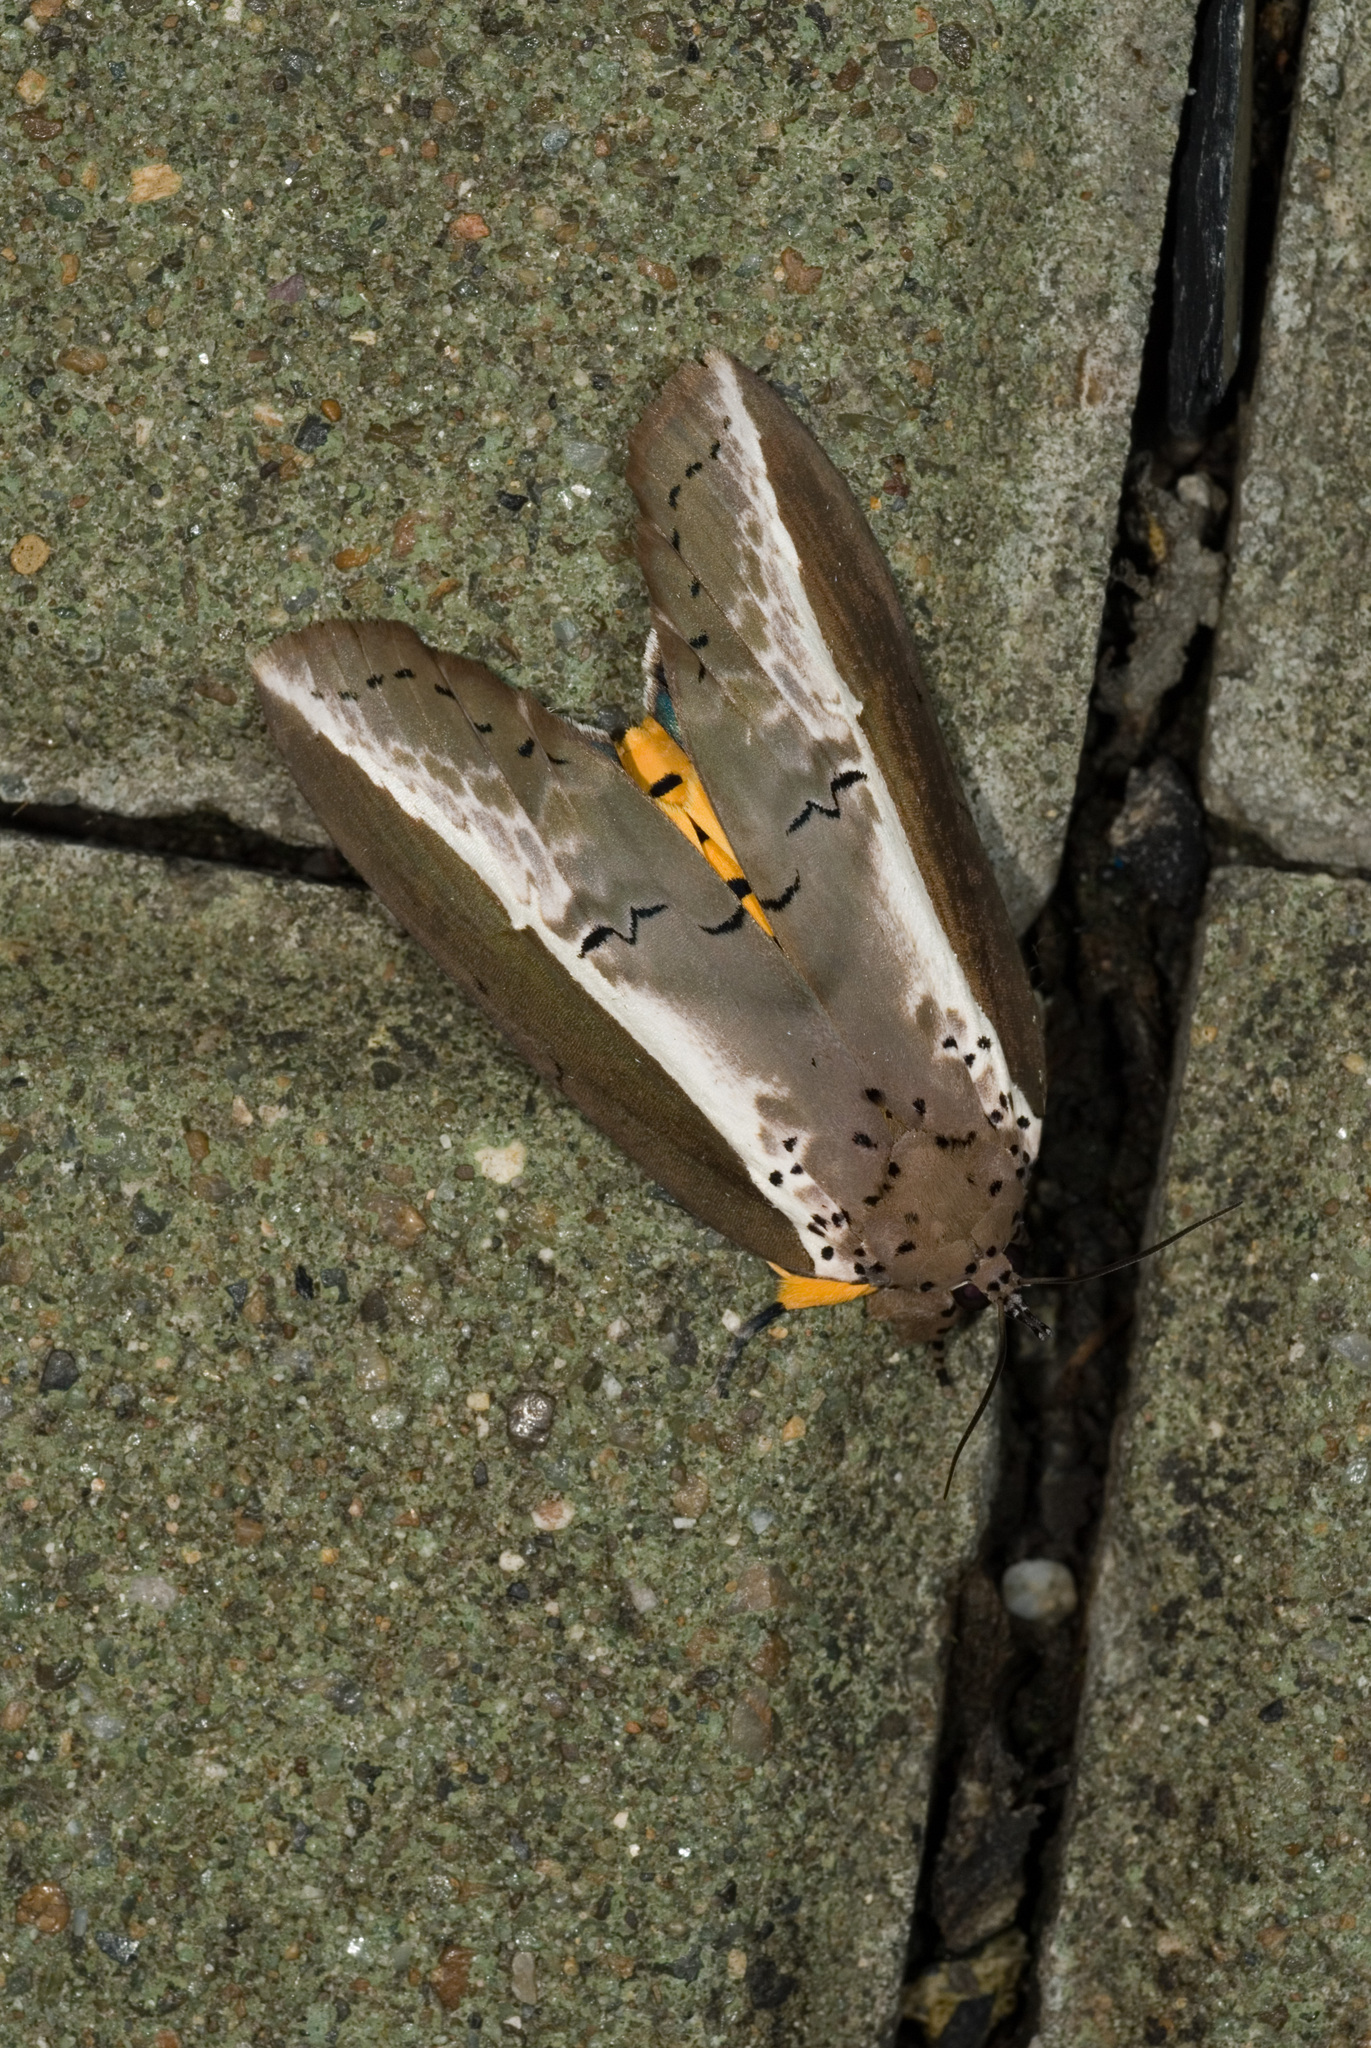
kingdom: Animalia
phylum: Arthropoda
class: Insecta
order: Lepidoptera
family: Nolidae
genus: Eligma
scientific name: Eligma narcissus
